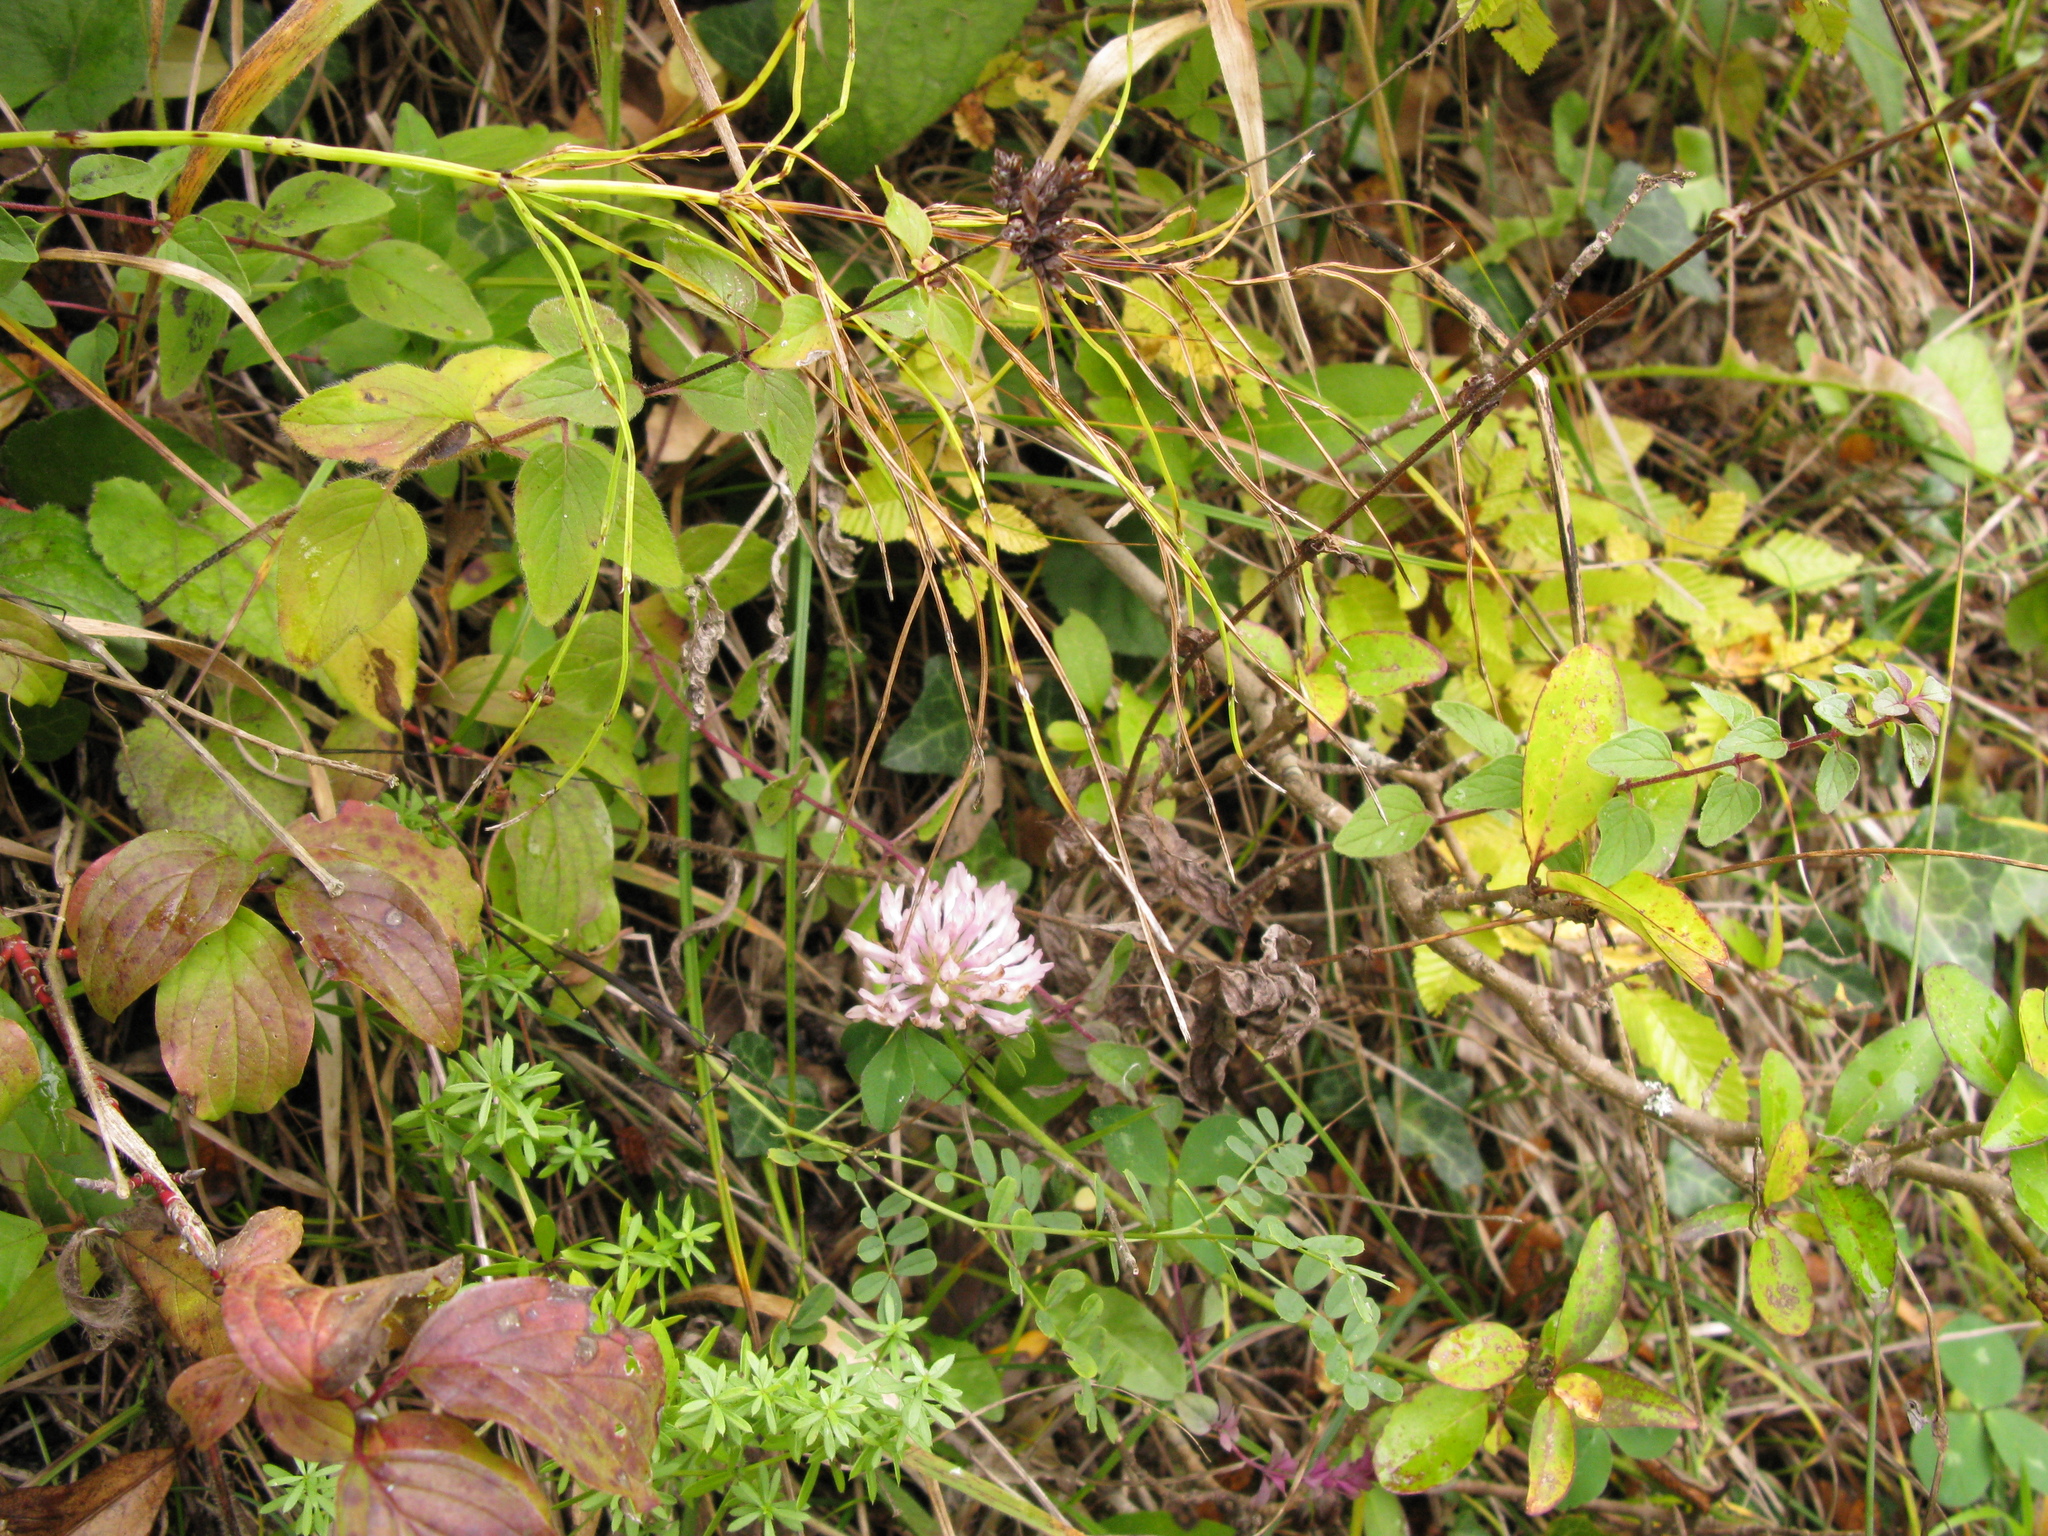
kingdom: Plantae
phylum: Tracheophyta
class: Magnoliopsida
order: Fabales
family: Fabaceae
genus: Trifolium
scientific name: Trifolium pratense
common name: Red clover
